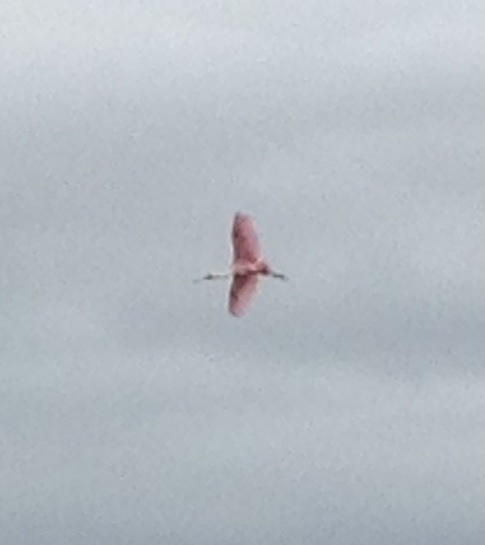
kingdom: Animalia
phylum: Chordata
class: Aves
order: Pelecaniformes
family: Threskiornithidae
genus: Platalea
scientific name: Platalea ajaja
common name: Roseate spoonbill
